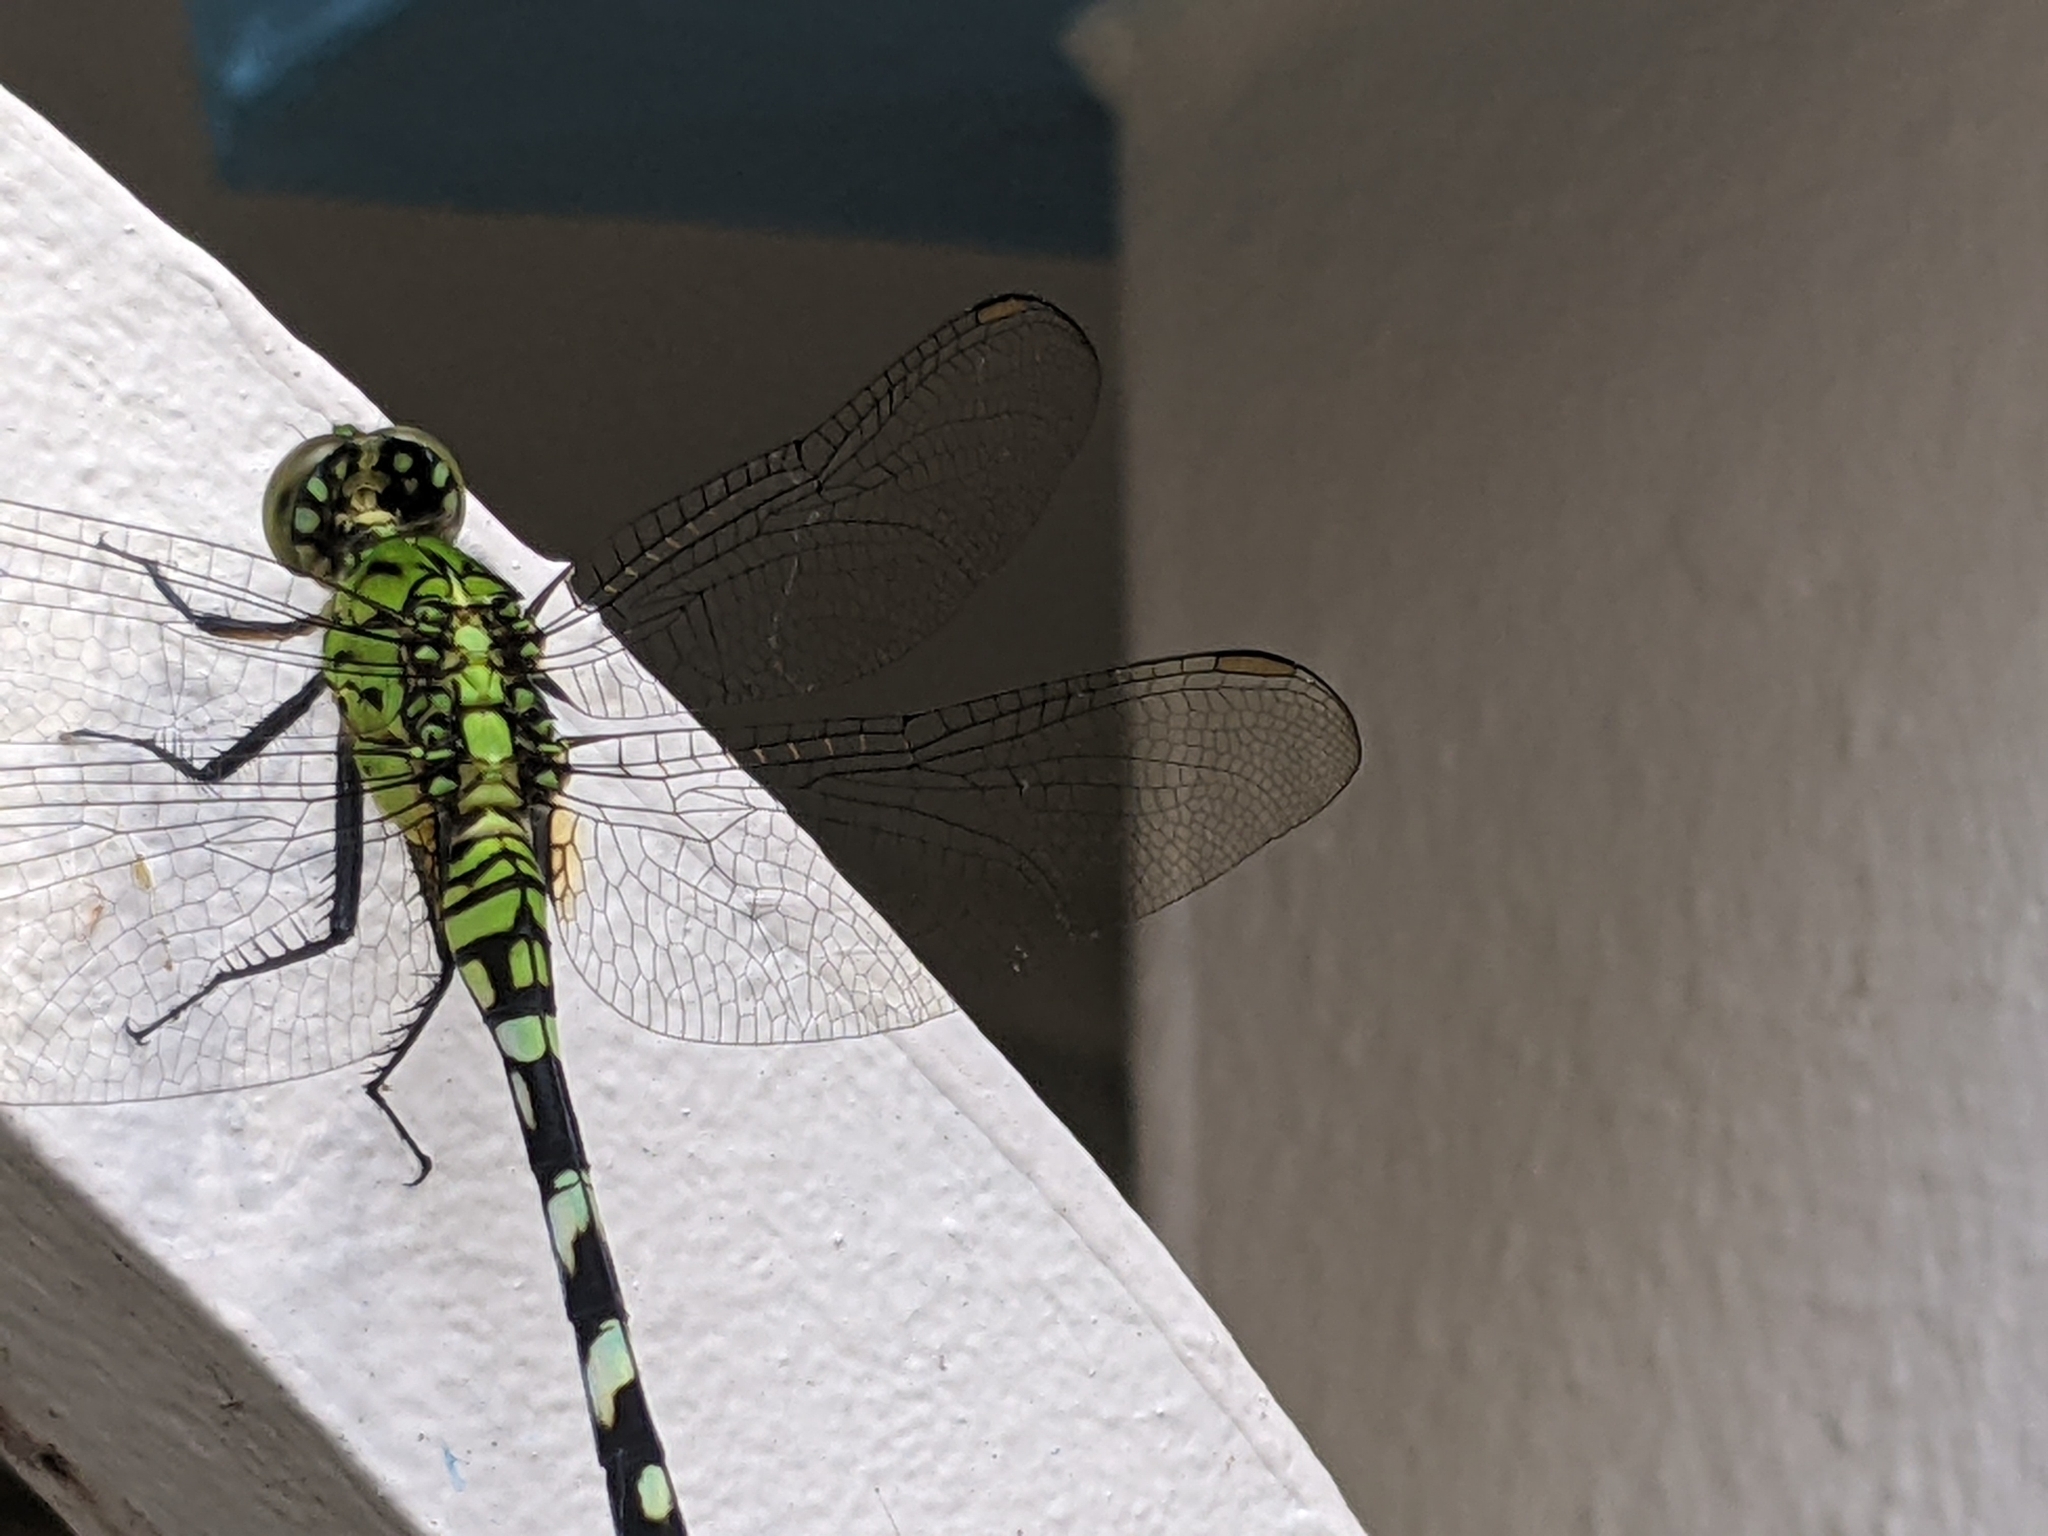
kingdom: Animalia
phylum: Arthropoda
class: Insecta
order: Odonata
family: Libellulidae
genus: Erythemis
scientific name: Erythemis simplicicollis
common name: Eastern pondhawk
